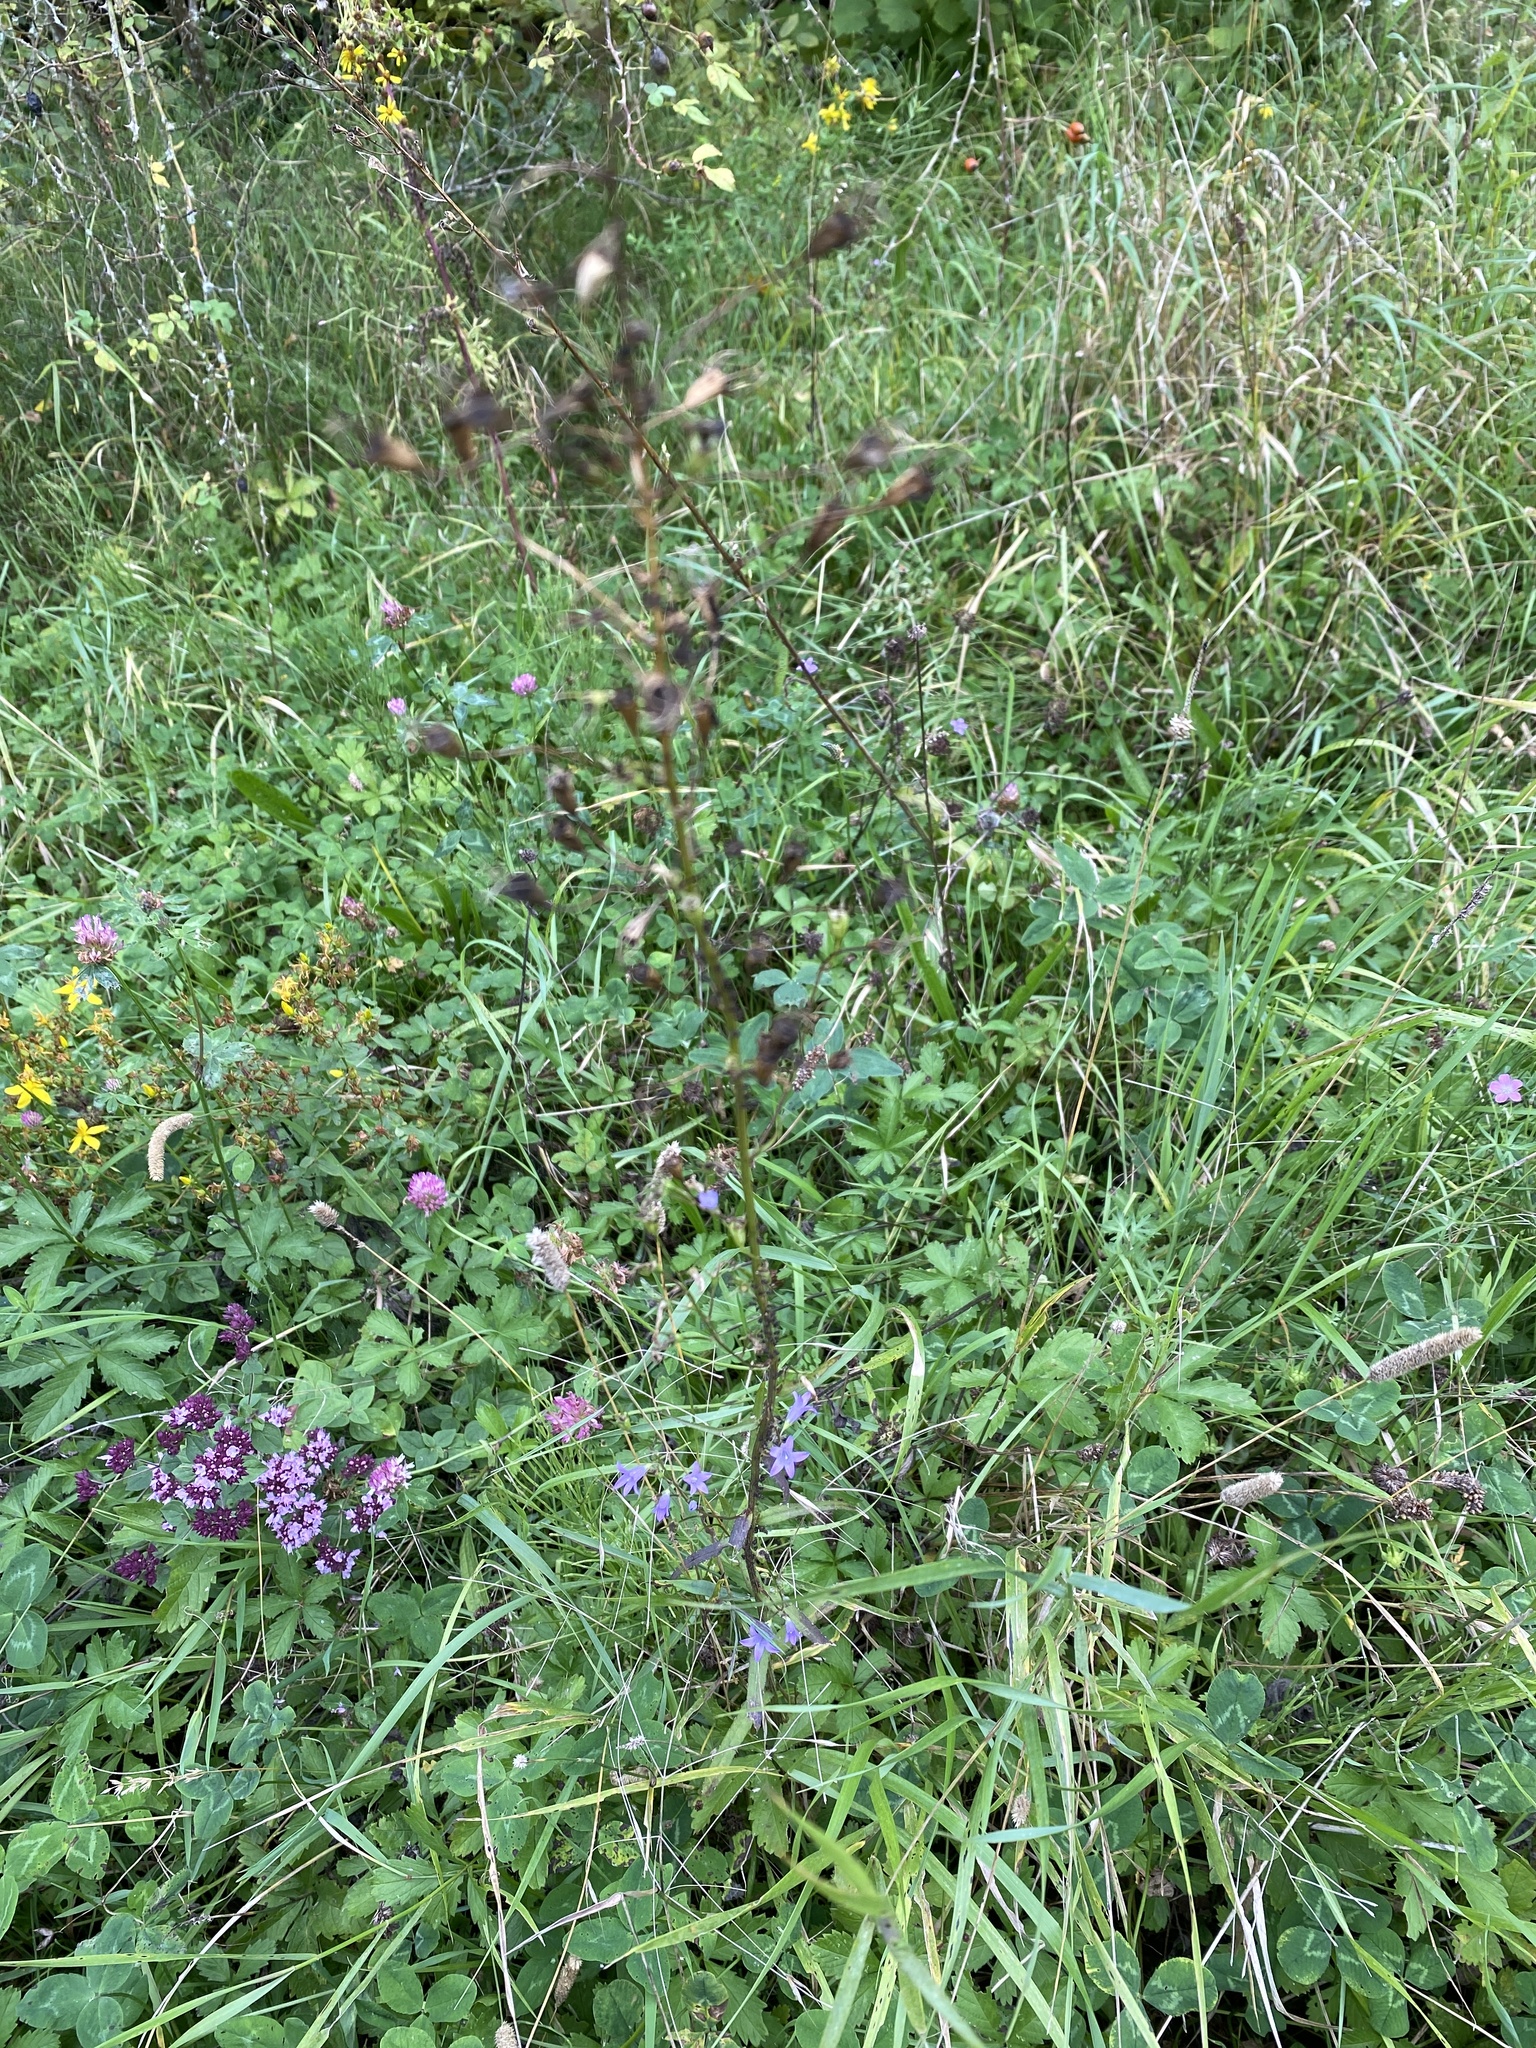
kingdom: Plantae
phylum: Tracheophyta
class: Magnoliopsida
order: Asterales
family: Campanulaceae
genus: Campanula
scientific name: Campanula rapunculus
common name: Rampion bellflower
